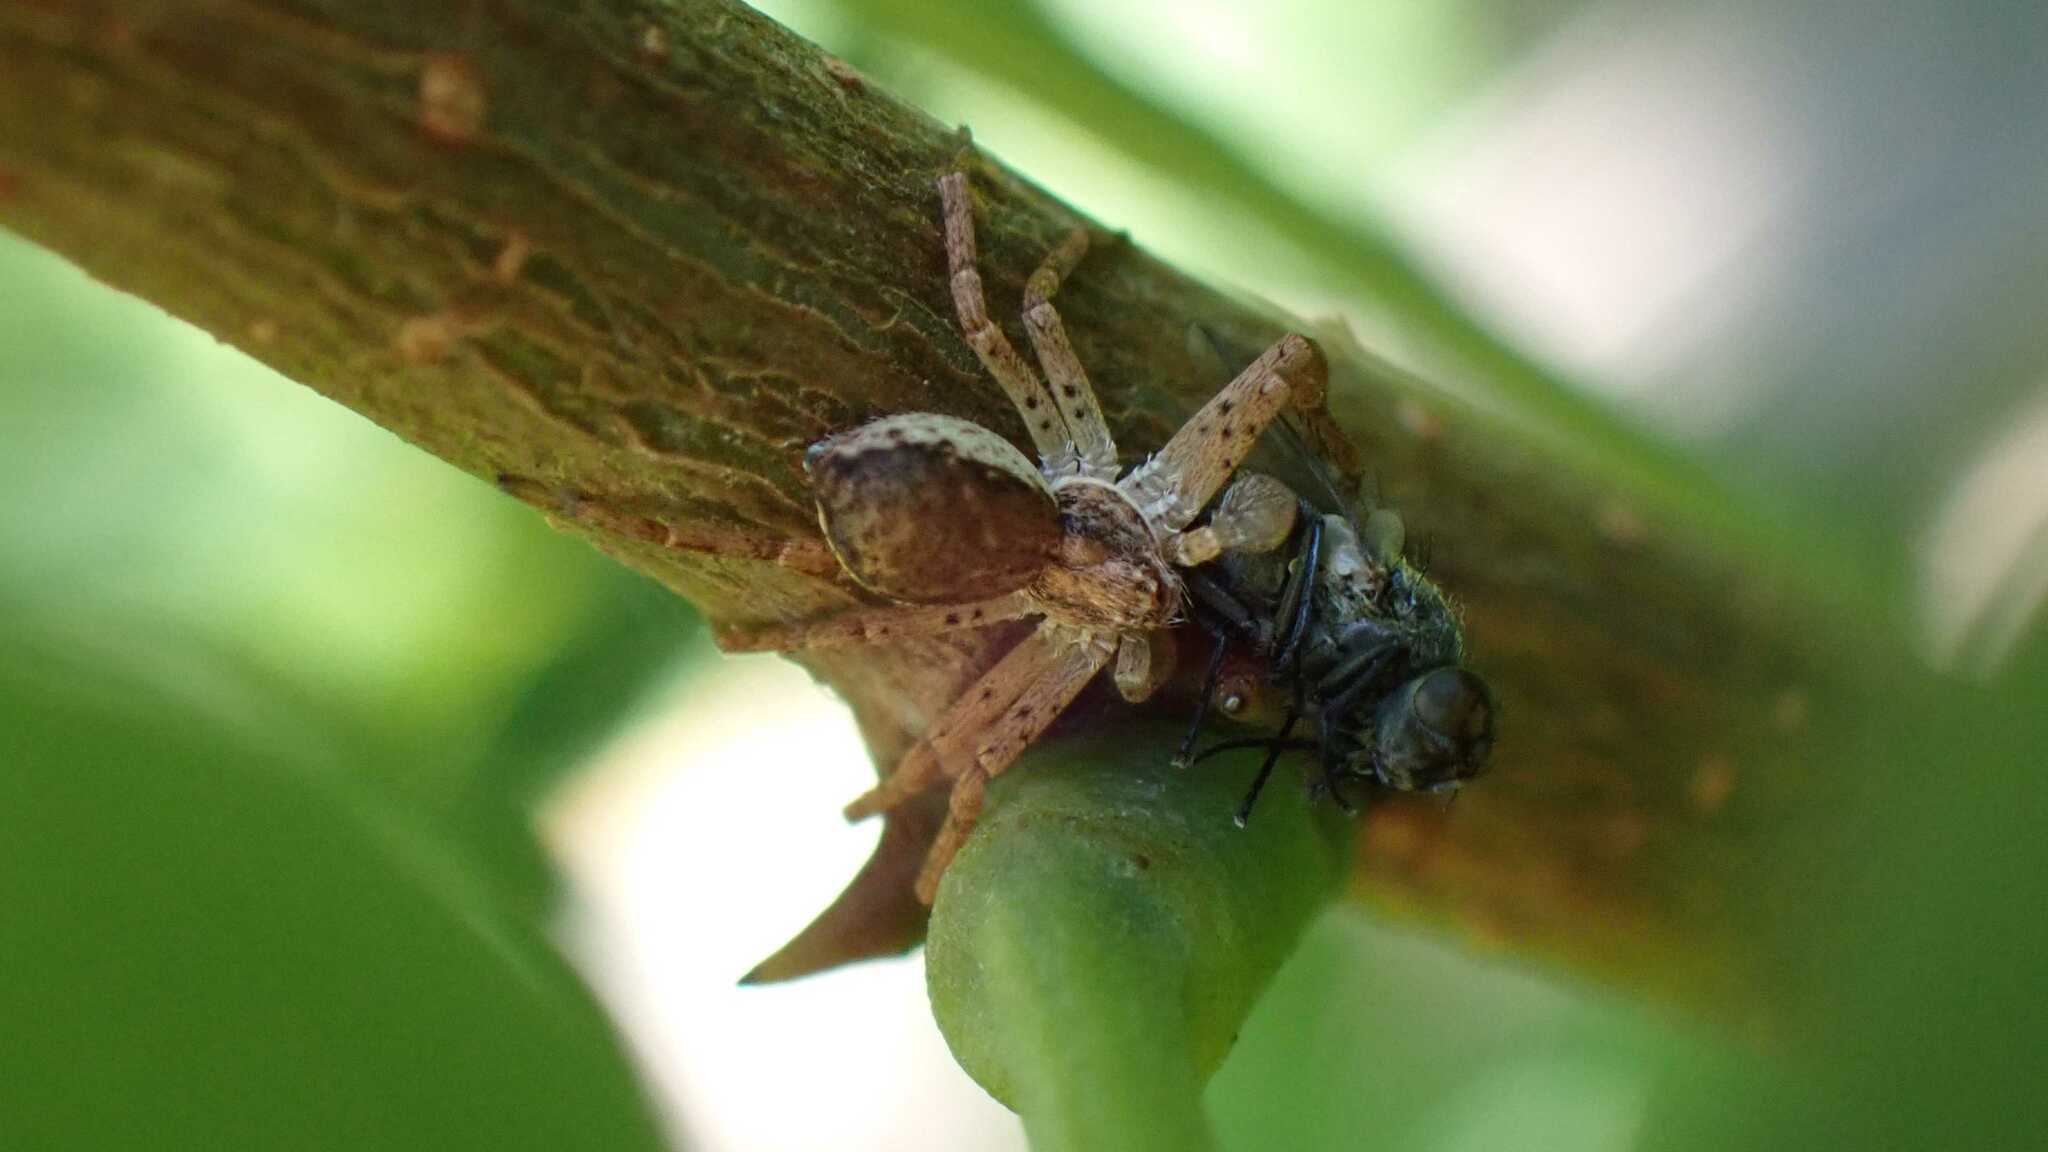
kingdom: Animalia
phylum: Arthropoda
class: Arachnida
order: Araneae
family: Philodromidae
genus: Philodromus
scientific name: Philodromus dispar
